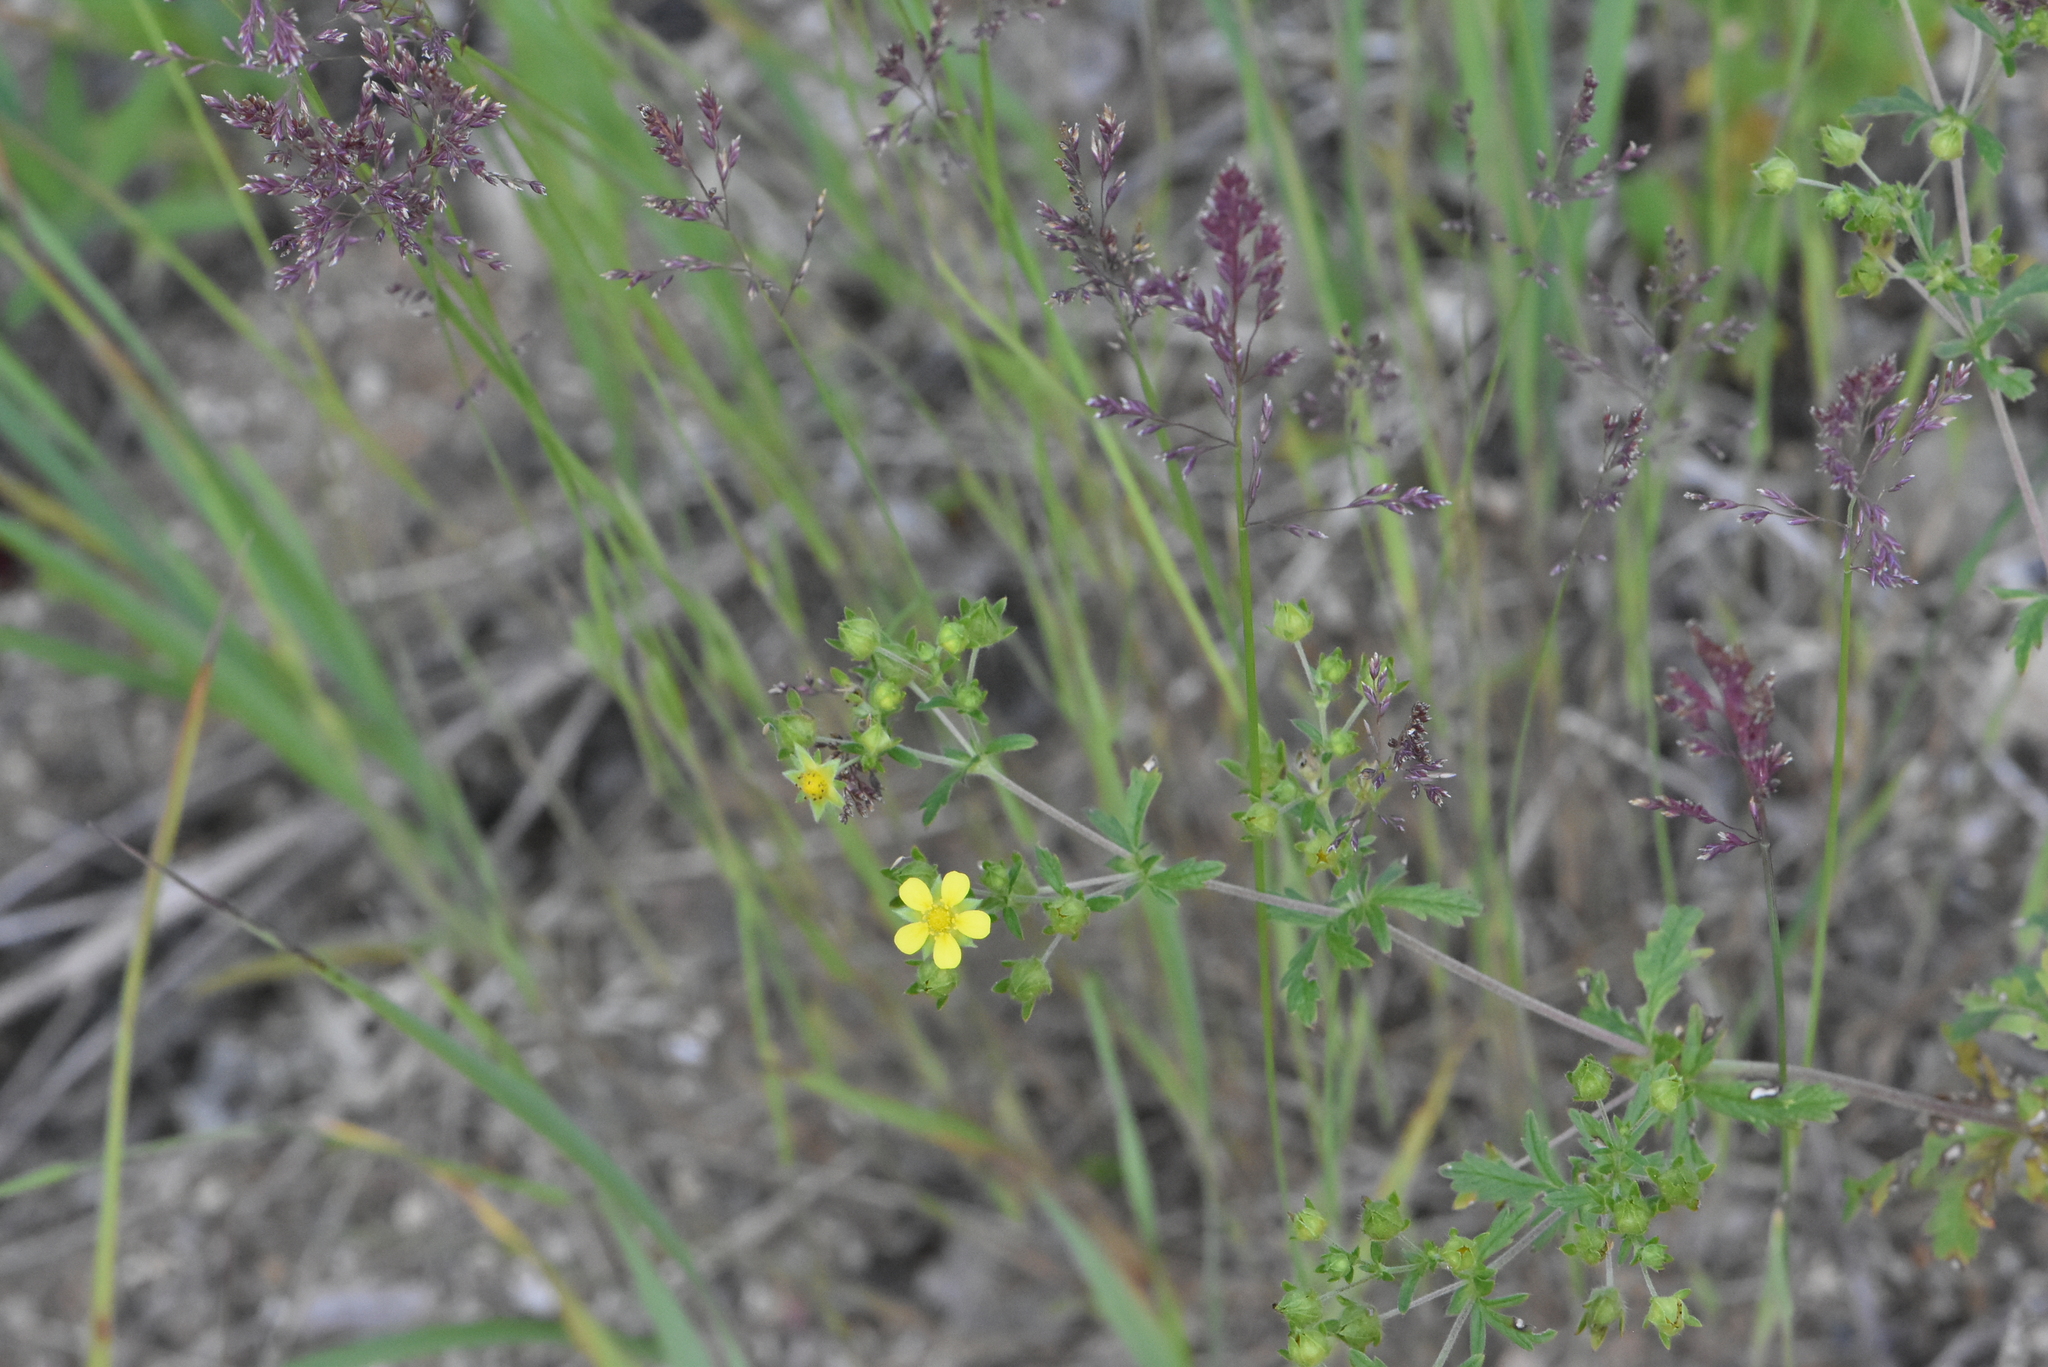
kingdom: Plantae
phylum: Tracheophyta
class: Magnoliopsida
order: Rosales
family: Rosaceae
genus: Potentilla
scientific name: Potentilla intermedia
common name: Downy cinquefoil
